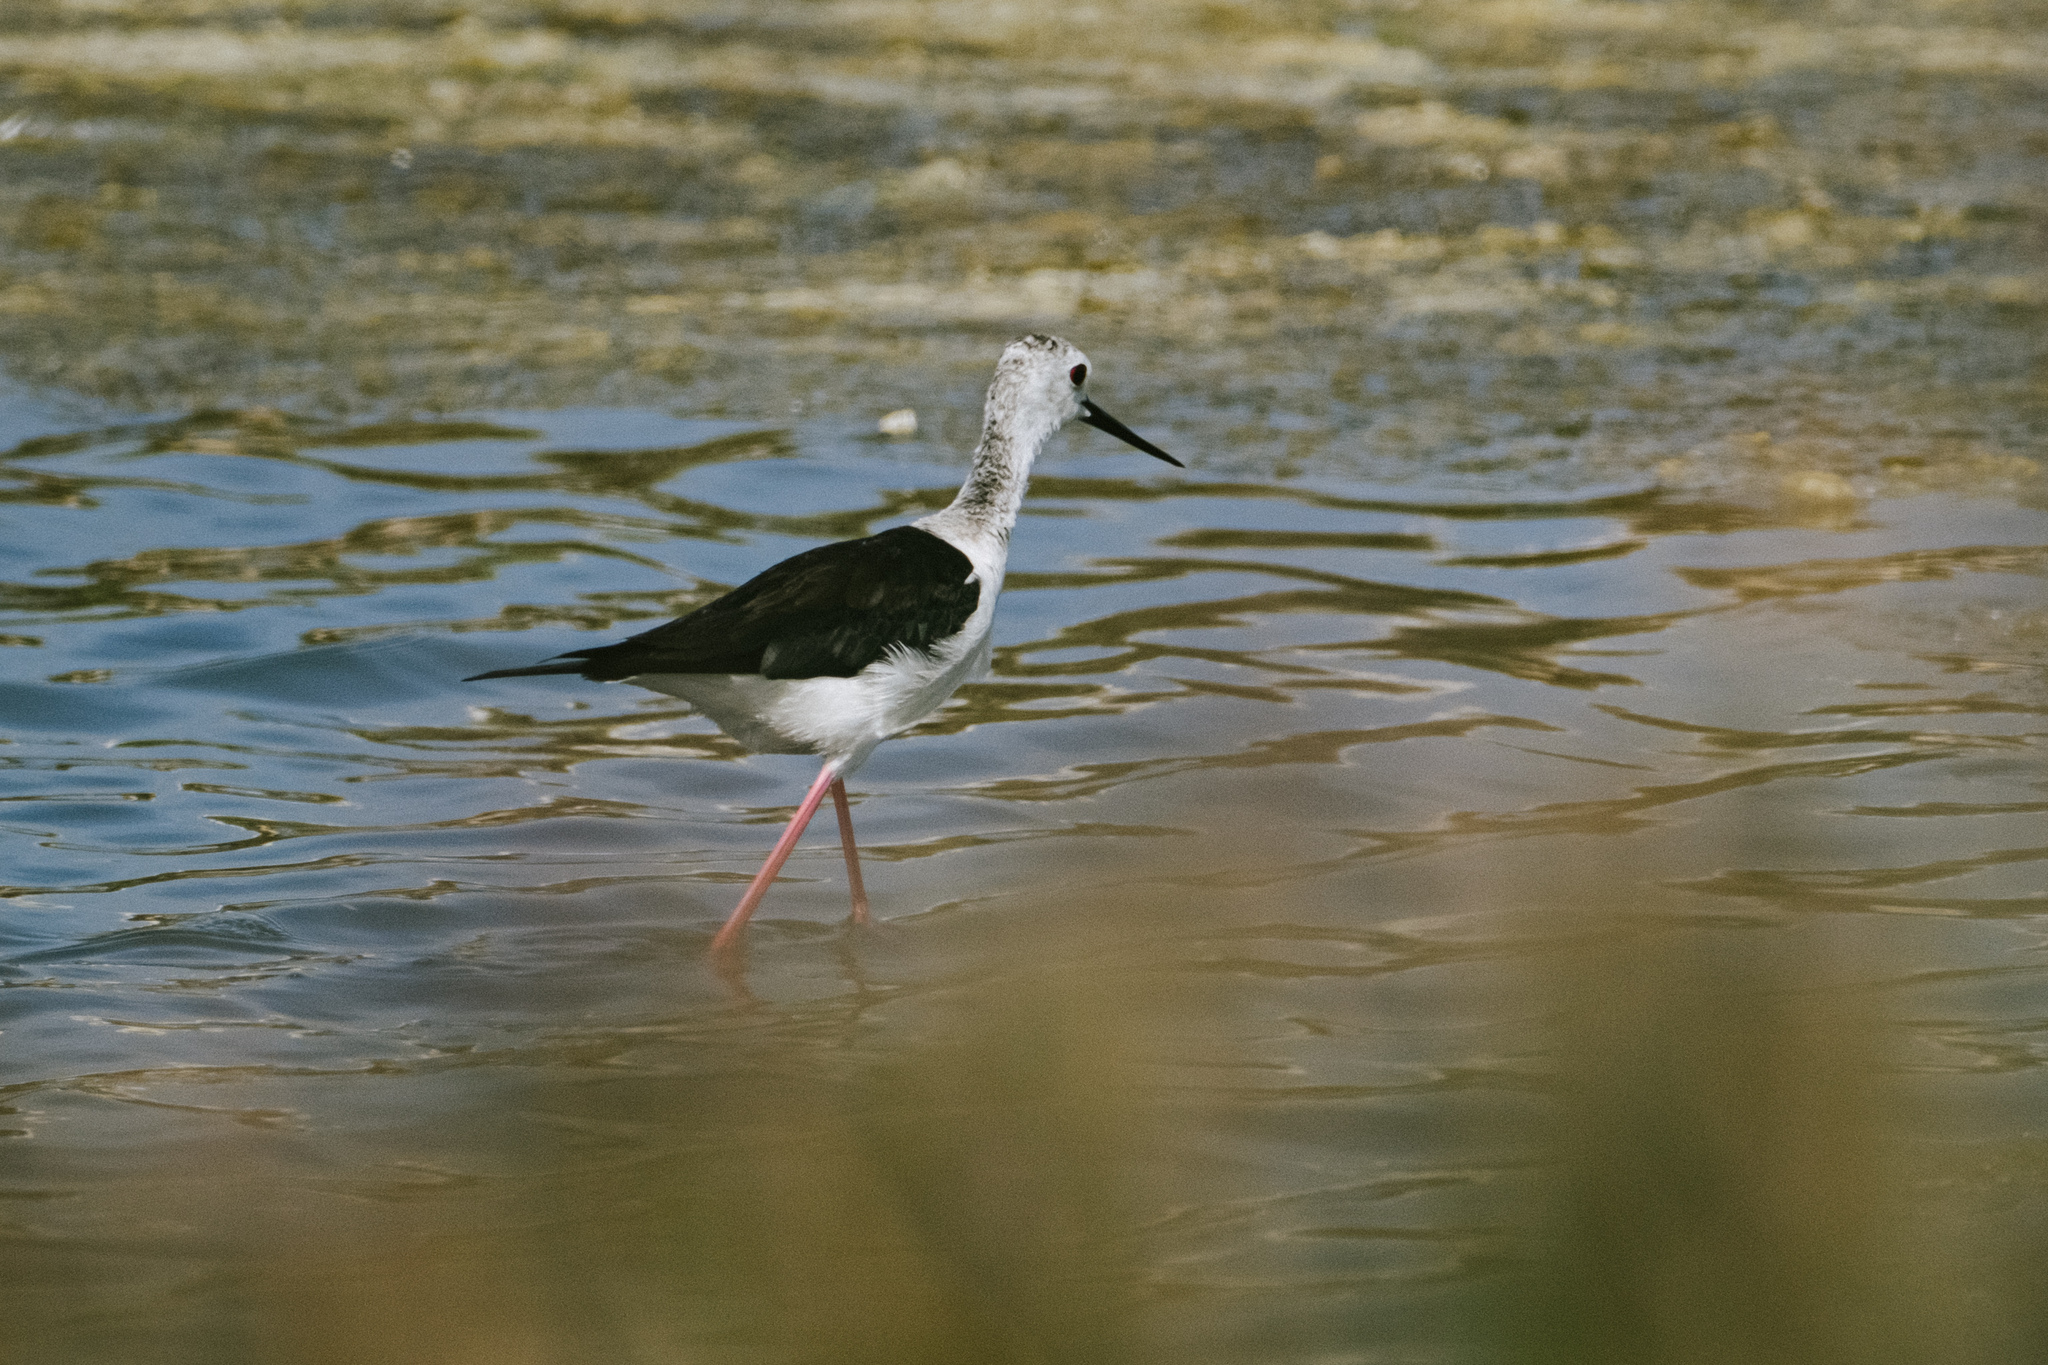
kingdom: Animalia
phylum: Chordata
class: Aves
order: Charadriiformes
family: Recurvirostridae
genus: Himantopus
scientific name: Himantopus himantopus
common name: Black-winged stilt
